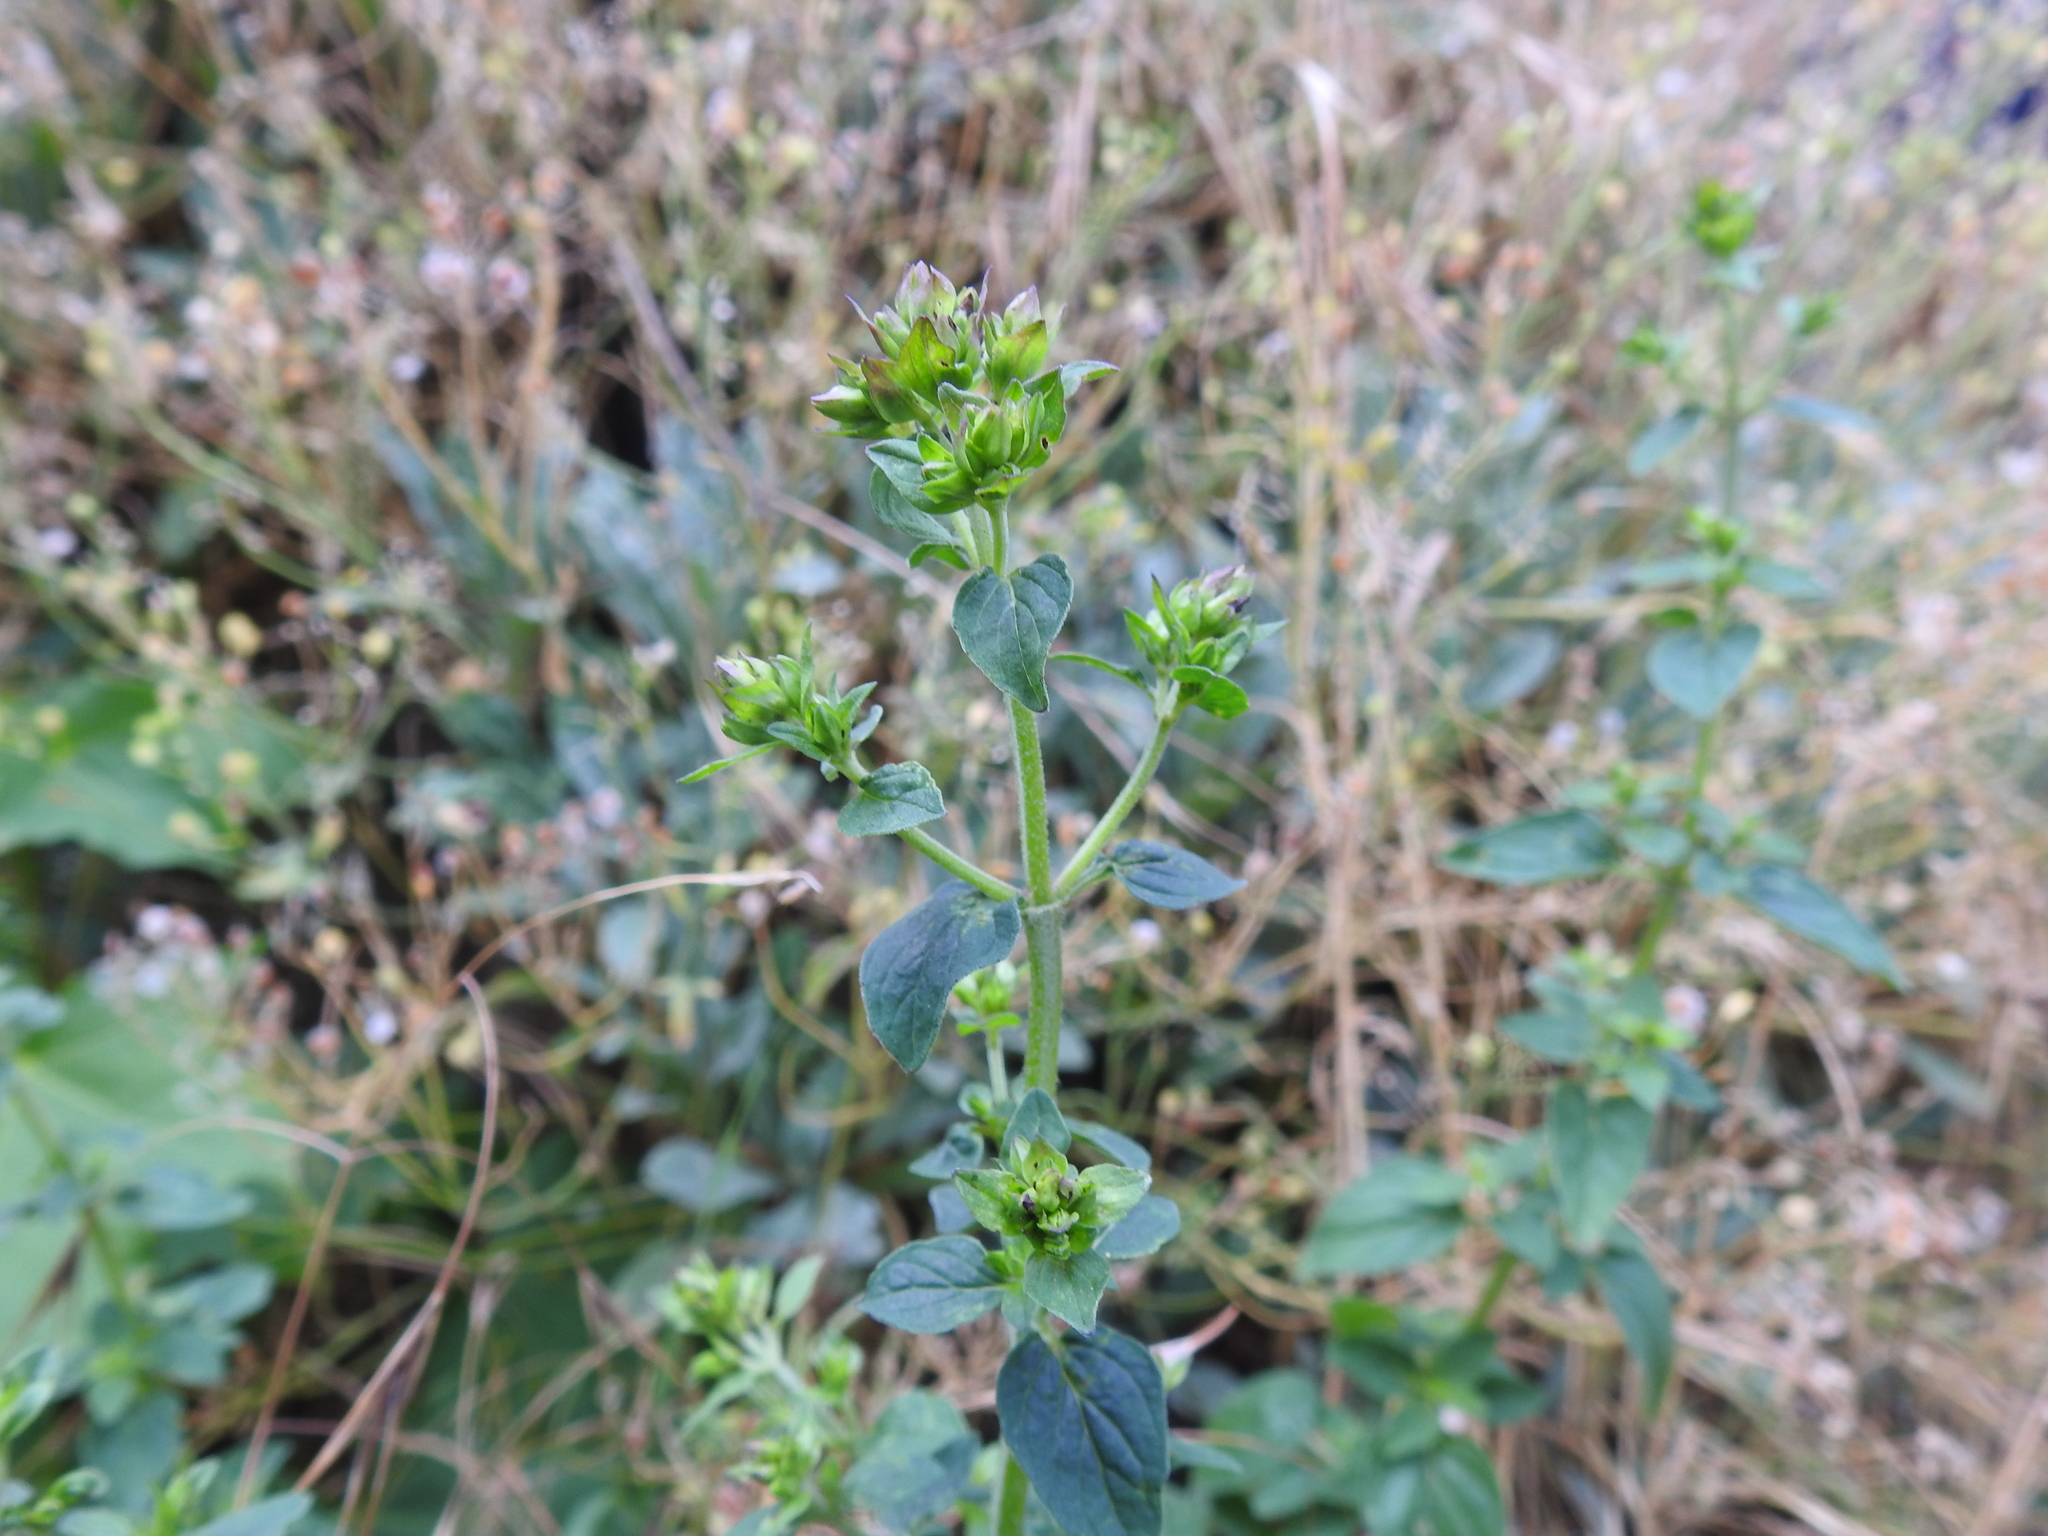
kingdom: Plantae
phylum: Tracheophyta
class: Magnoliopsida
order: Lamiales
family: Lamiaceae
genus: Origanum
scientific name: Origanum vulgare
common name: Wild marjoram
